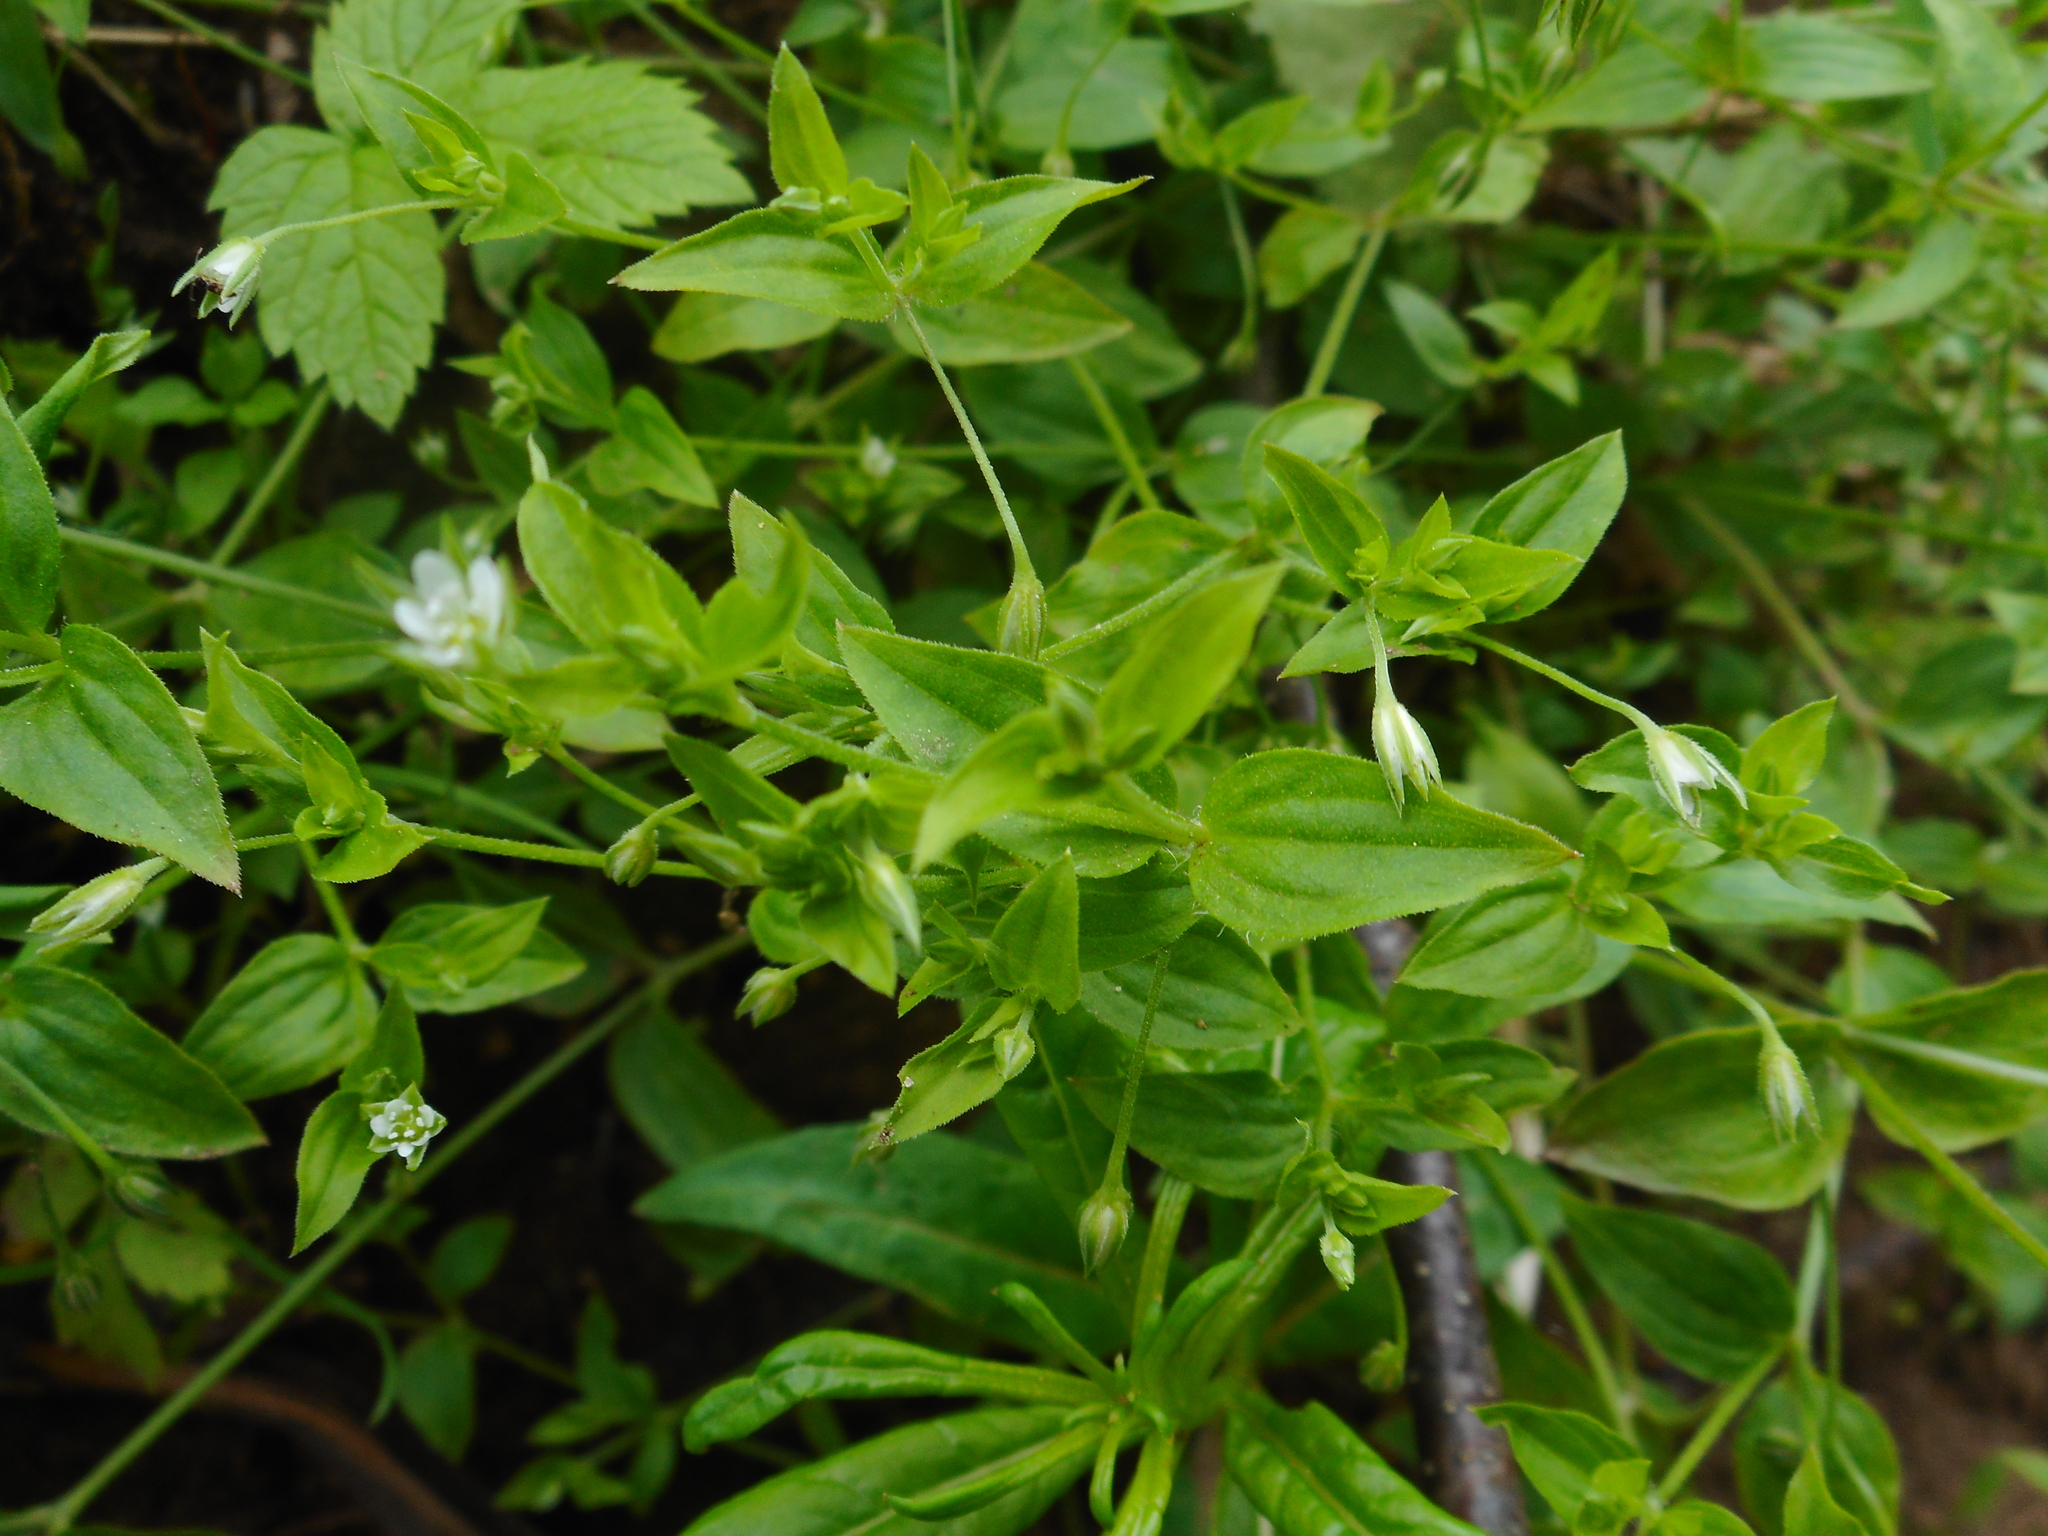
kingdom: Plantae
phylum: Tracheophyta
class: Magnoliopsida
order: Caryophyllales
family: Caryophyllaceae
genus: Moehringia
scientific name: Moehringia trinervia
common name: Three-nerved sandwort
